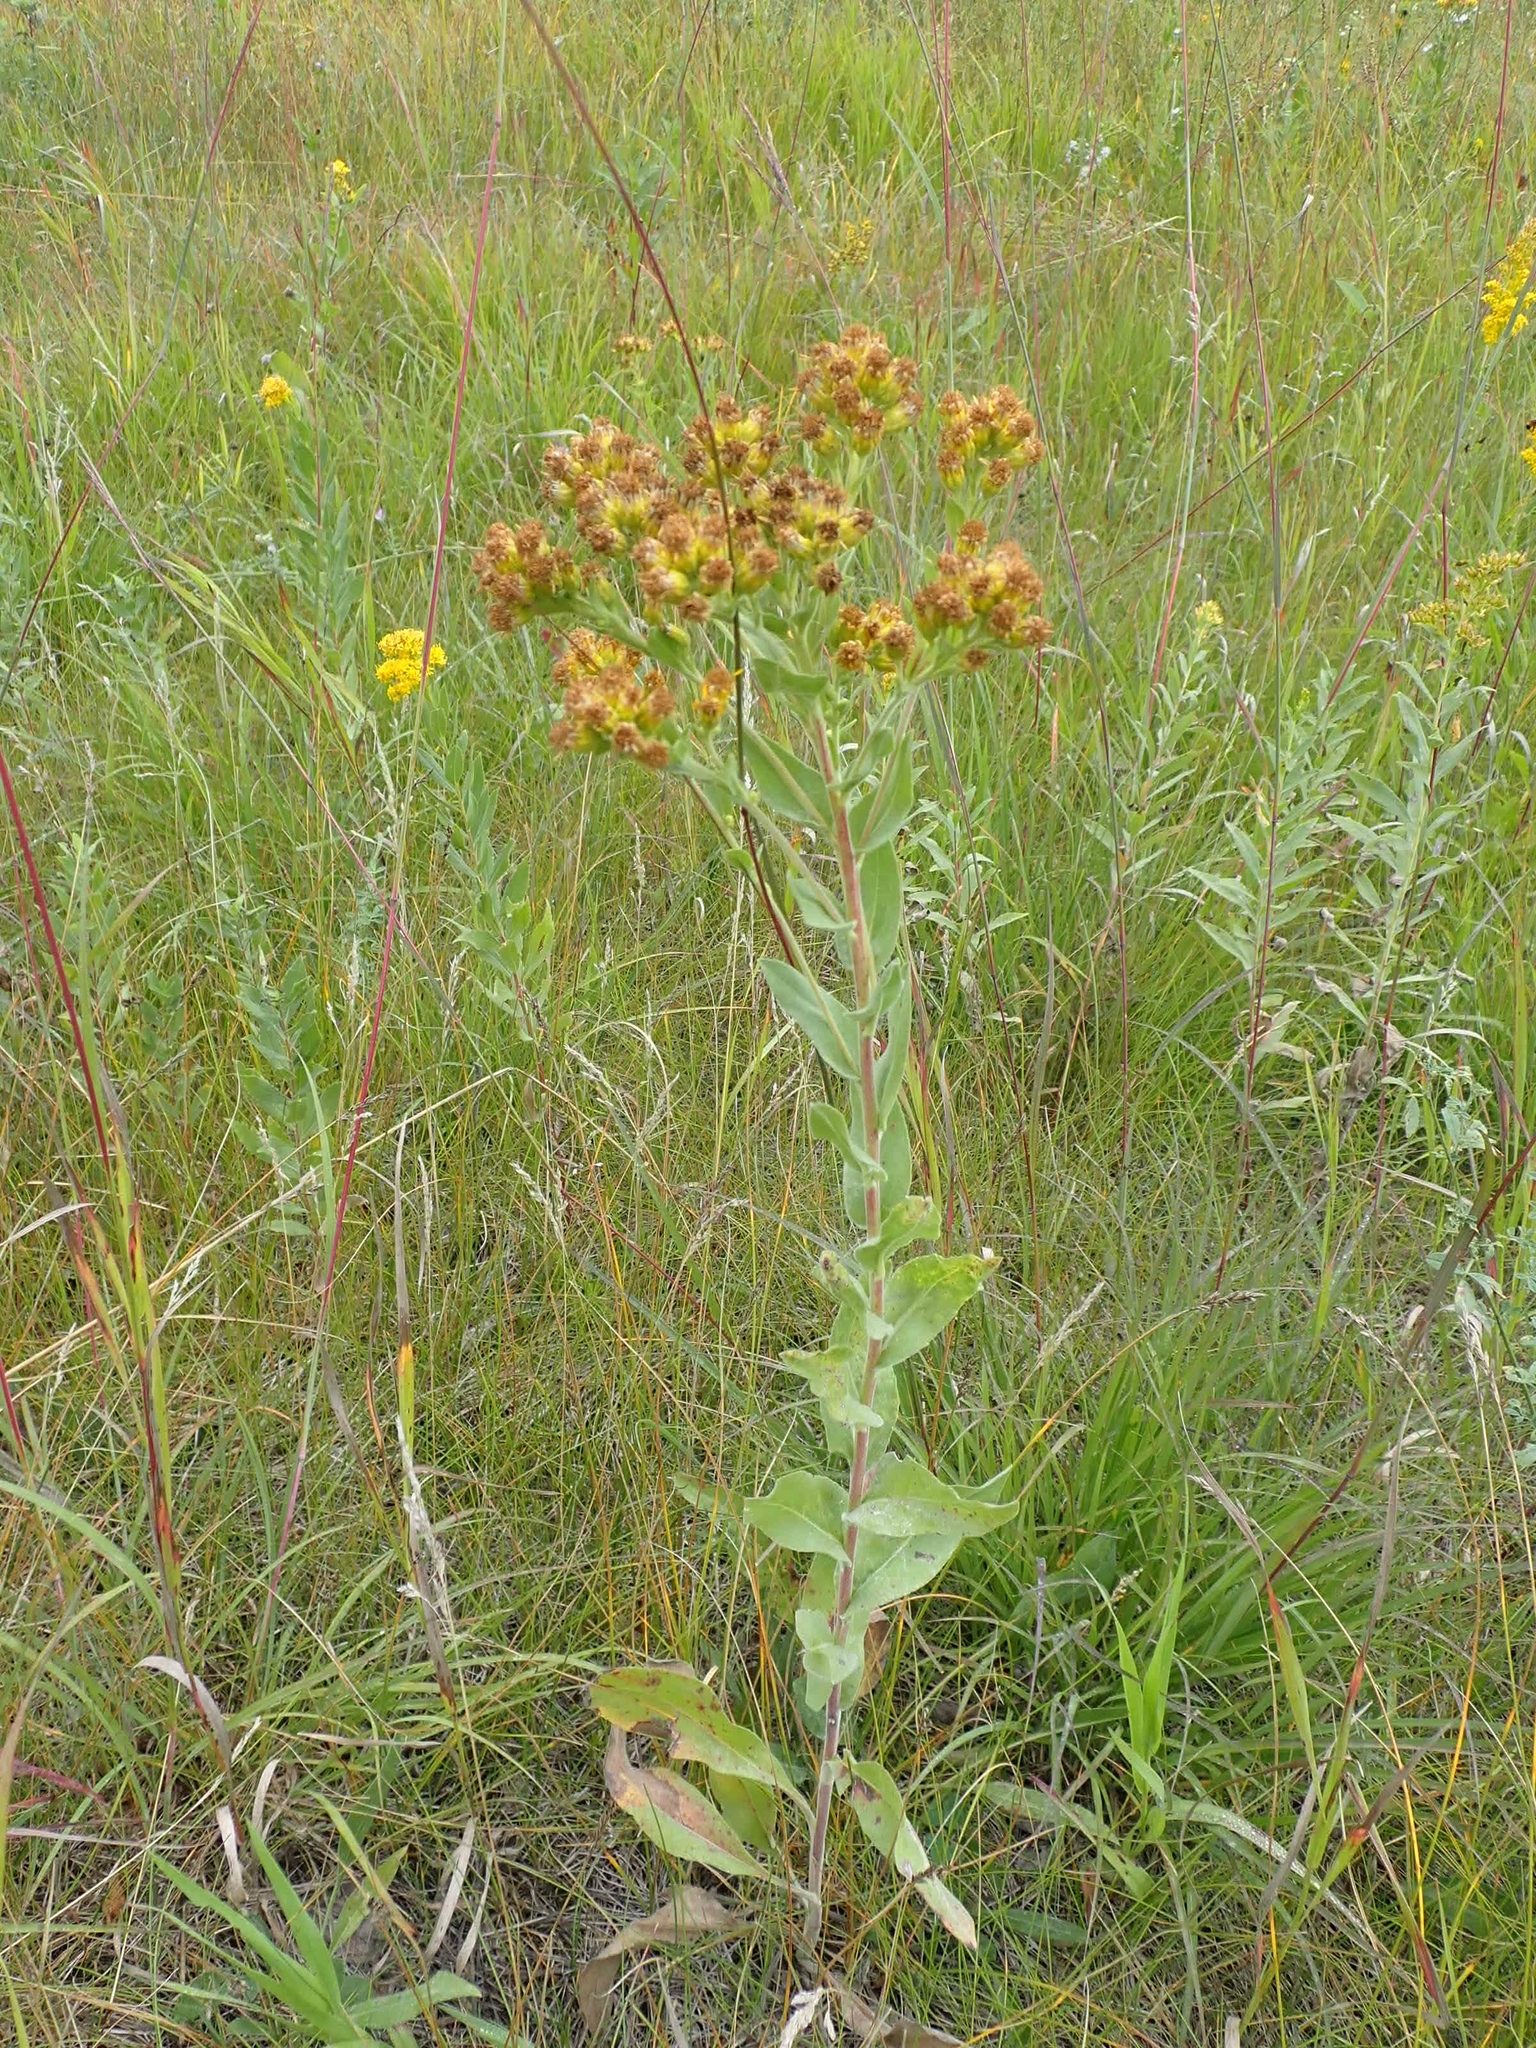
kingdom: Plantae
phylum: Tracheophyta
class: Magnoliopsida
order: Asterales
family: Asteraceae
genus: Solidago
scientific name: Solidago rigida
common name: Rigid goldenrod
